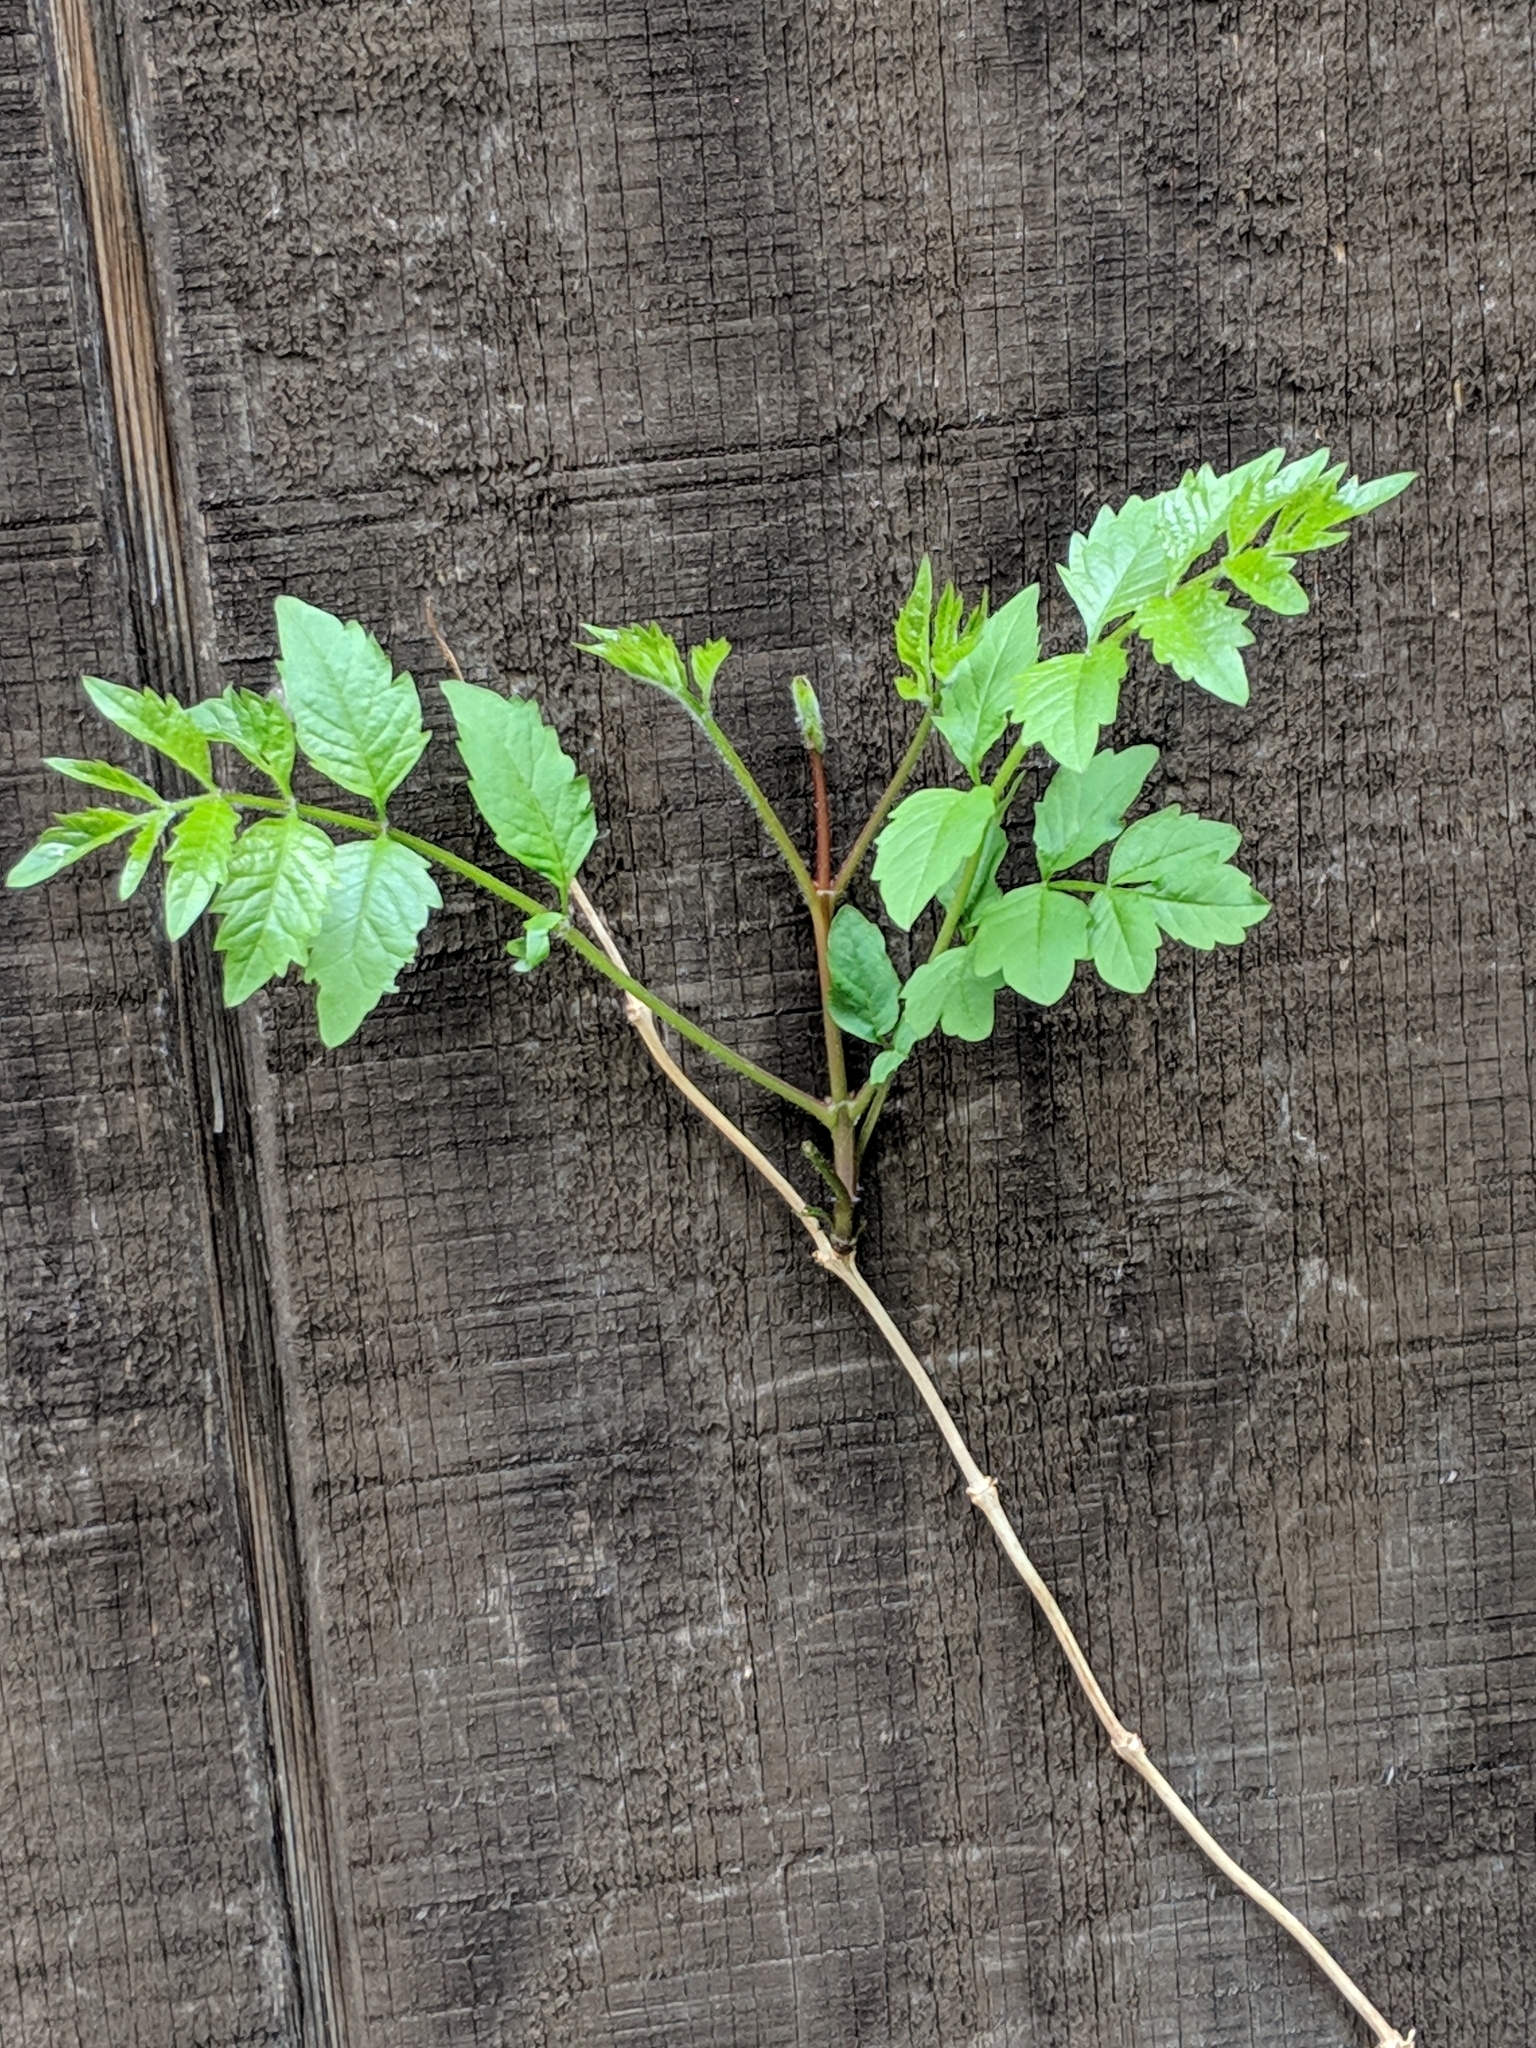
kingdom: Plantae
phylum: Tracheophyta
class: Magnoliopsida
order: Lamiales
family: Bignoniaceae
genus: Campsis
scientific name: Campsis radicans
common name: Trumpet-creeper
